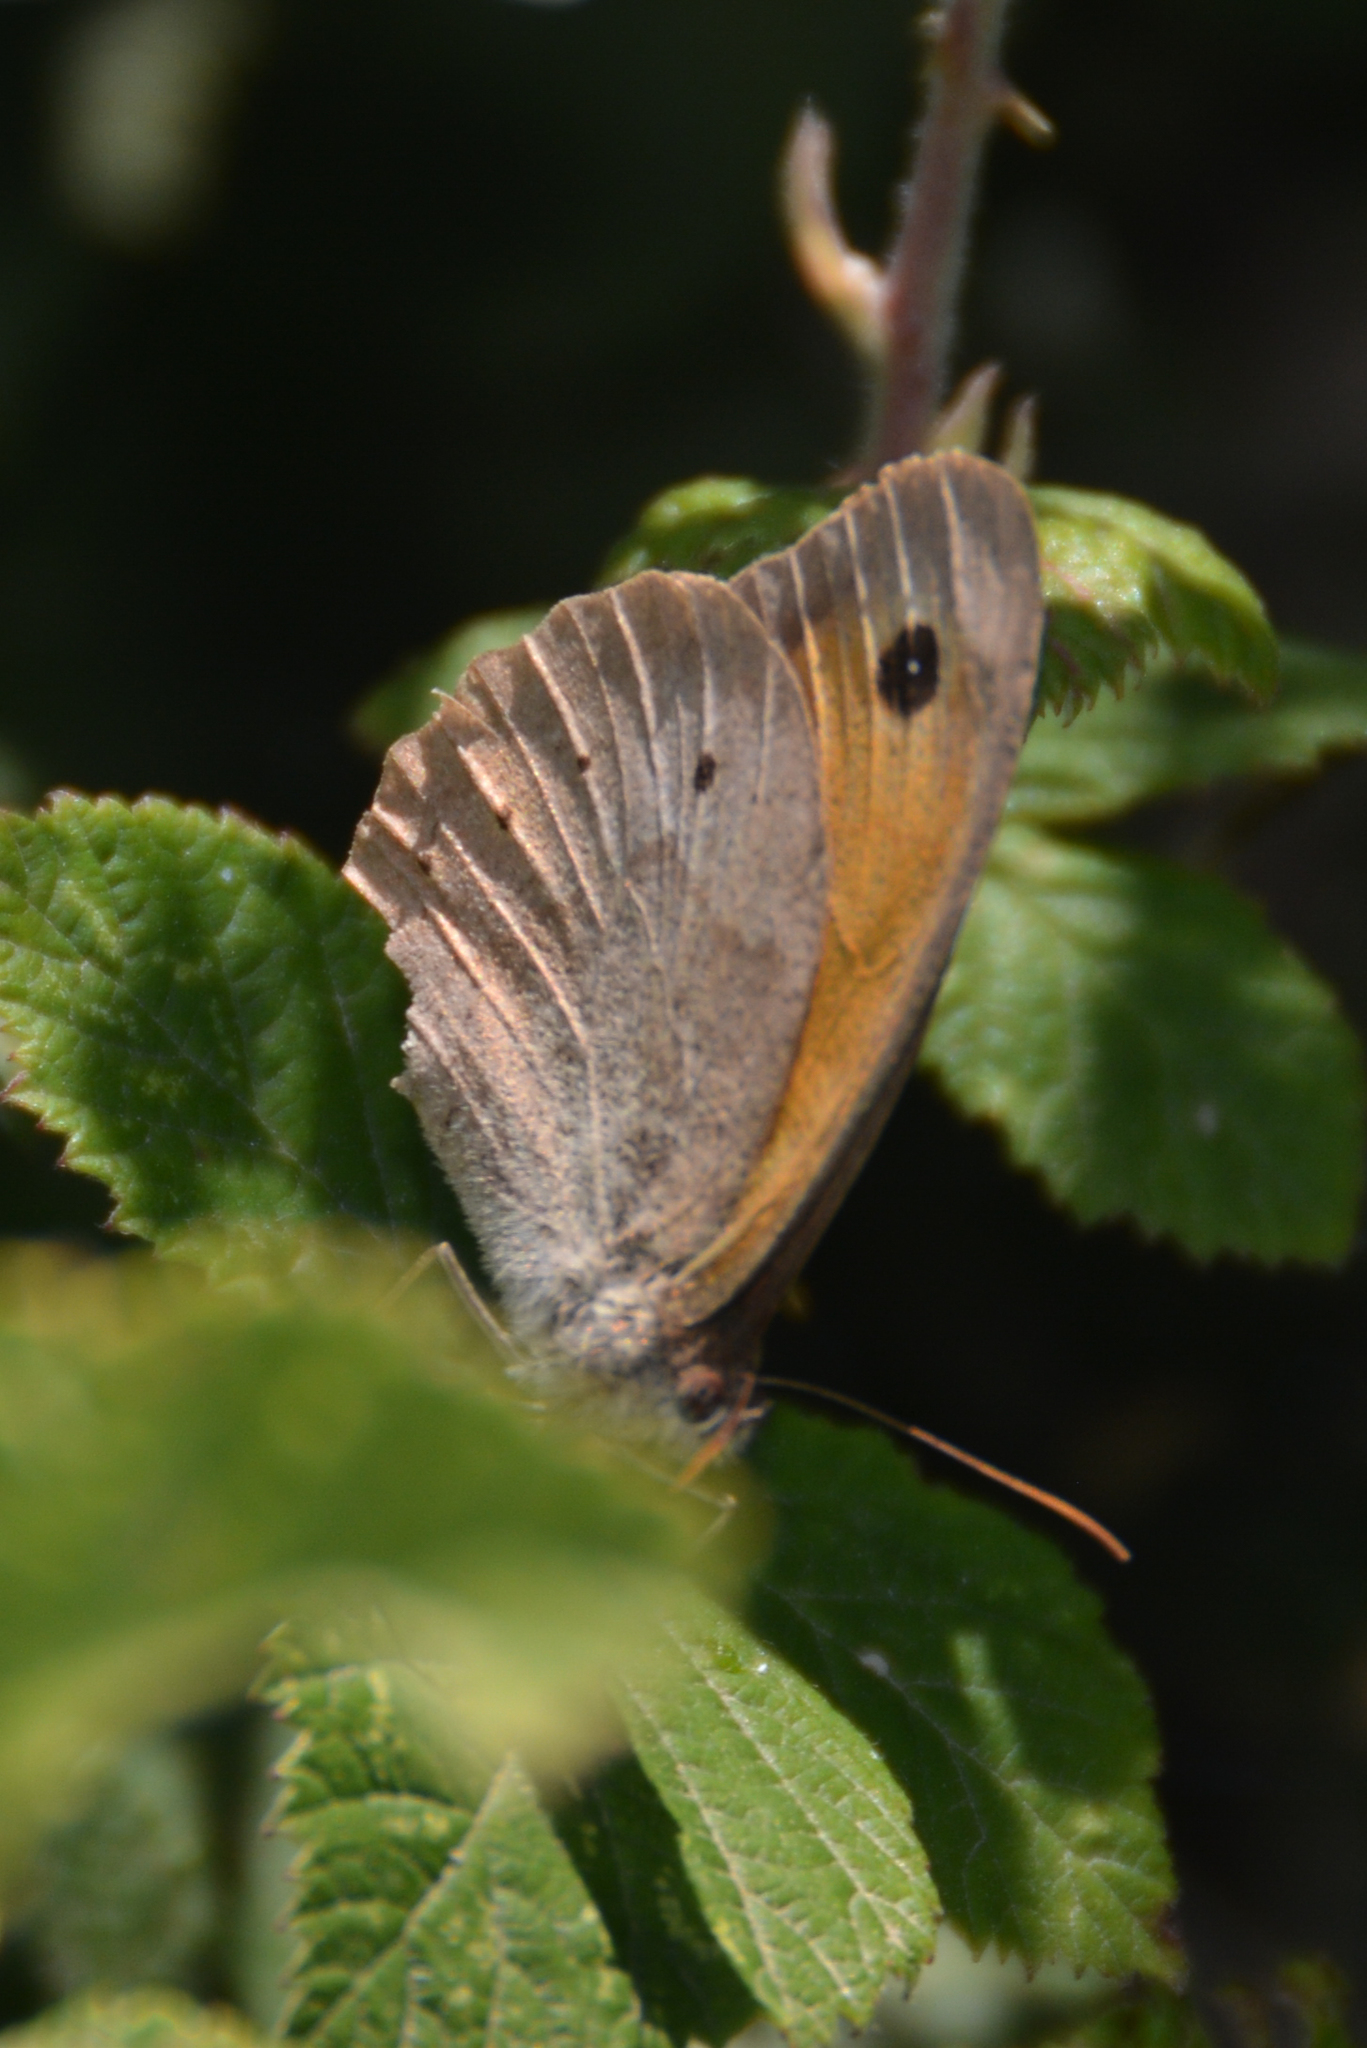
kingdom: Animalia
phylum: Arthropoda
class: Insecta
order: Lepidoptera
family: Nymphalidae
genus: Maniola
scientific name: Maniola jurtina
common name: Meadow brown
